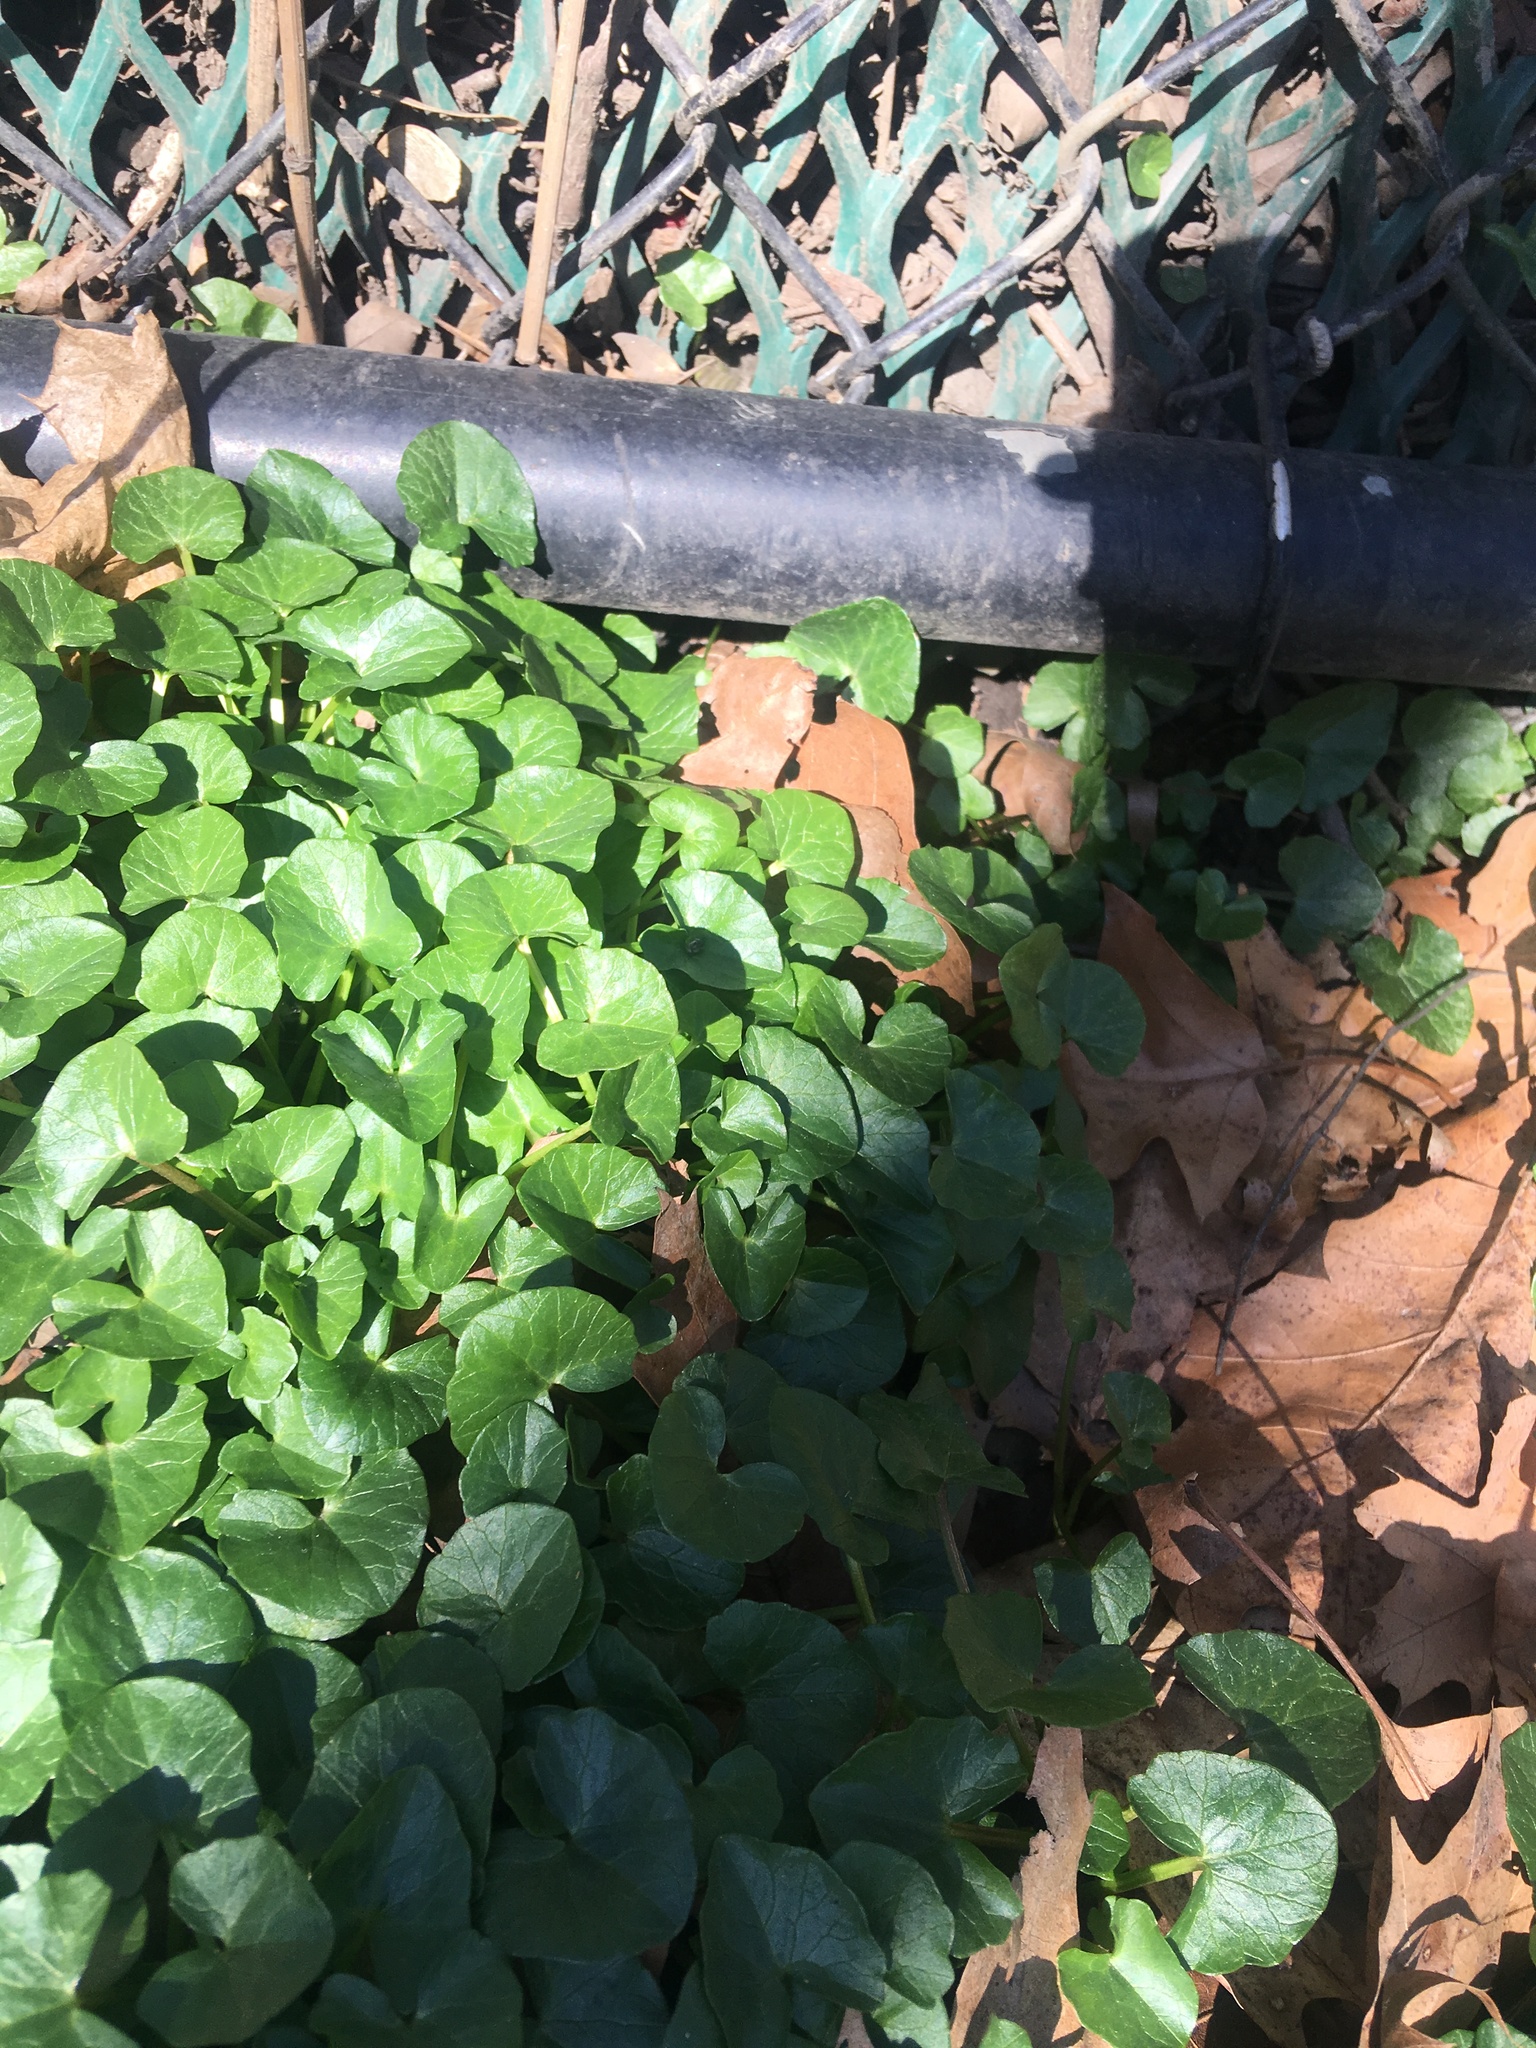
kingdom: Plantae
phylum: Tracheophyta
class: Magnoliopsida
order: Ranunculales
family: Ranunculaceae
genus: Ficaria
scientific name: Ficaria verna
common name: Lesser celandine
